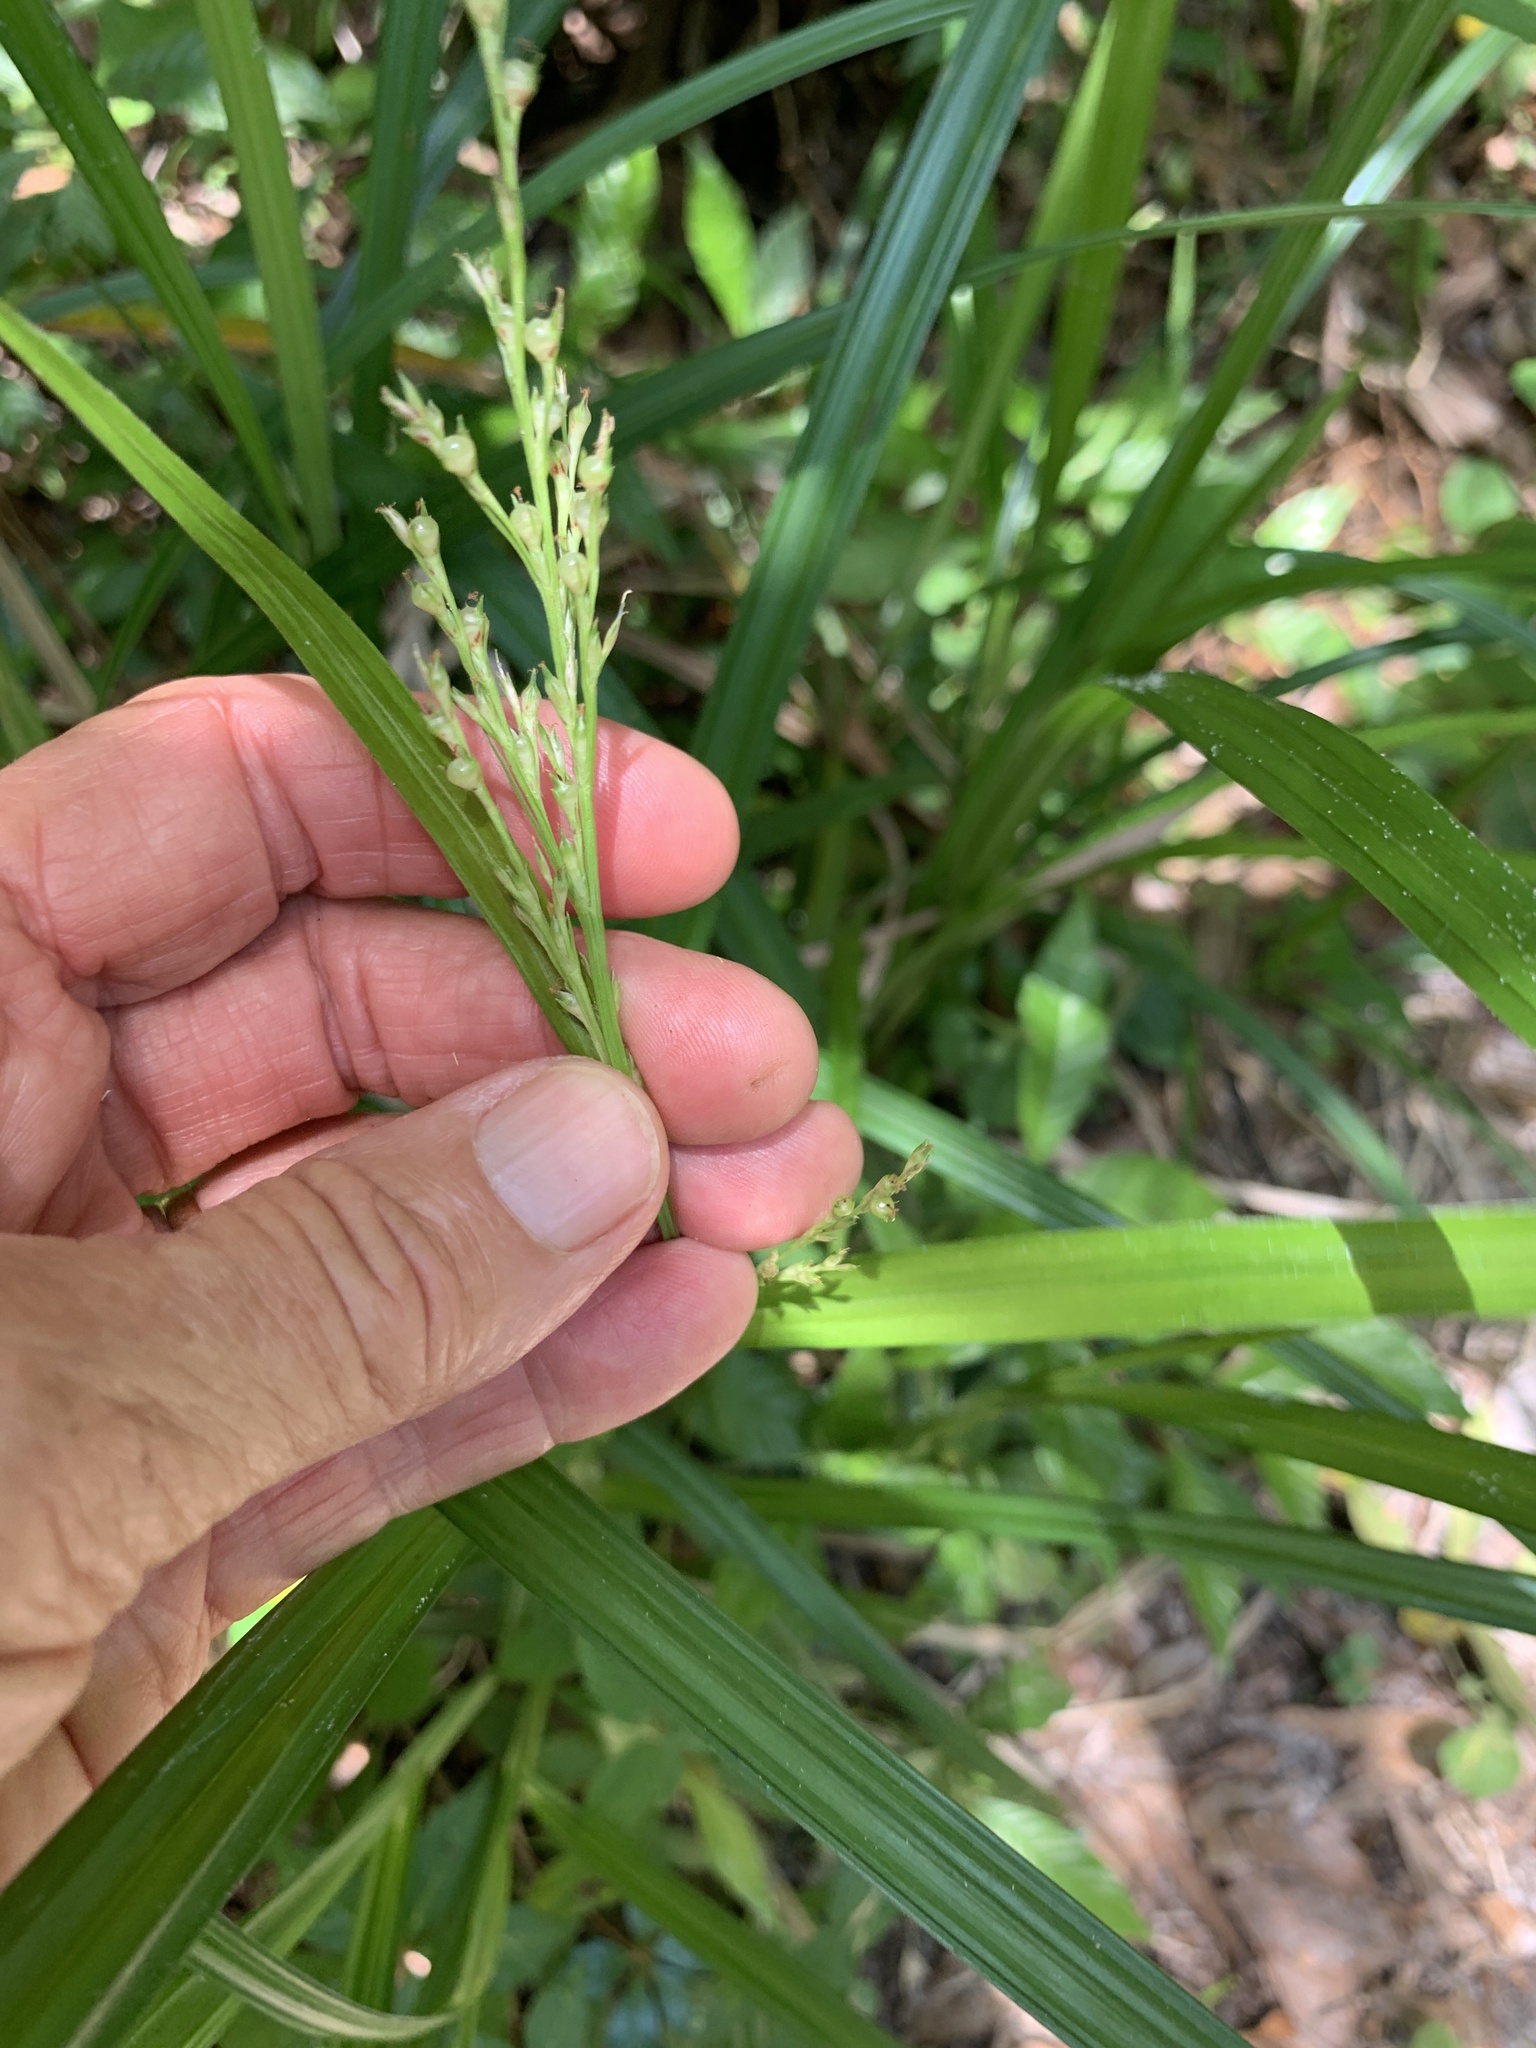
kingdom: Plantae
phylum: Tracheophyta
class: Liliopsida
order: Poales
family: Cyperaceae
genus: Scleria
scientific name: Scleria lacustris
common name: Lakeshore nutrush
